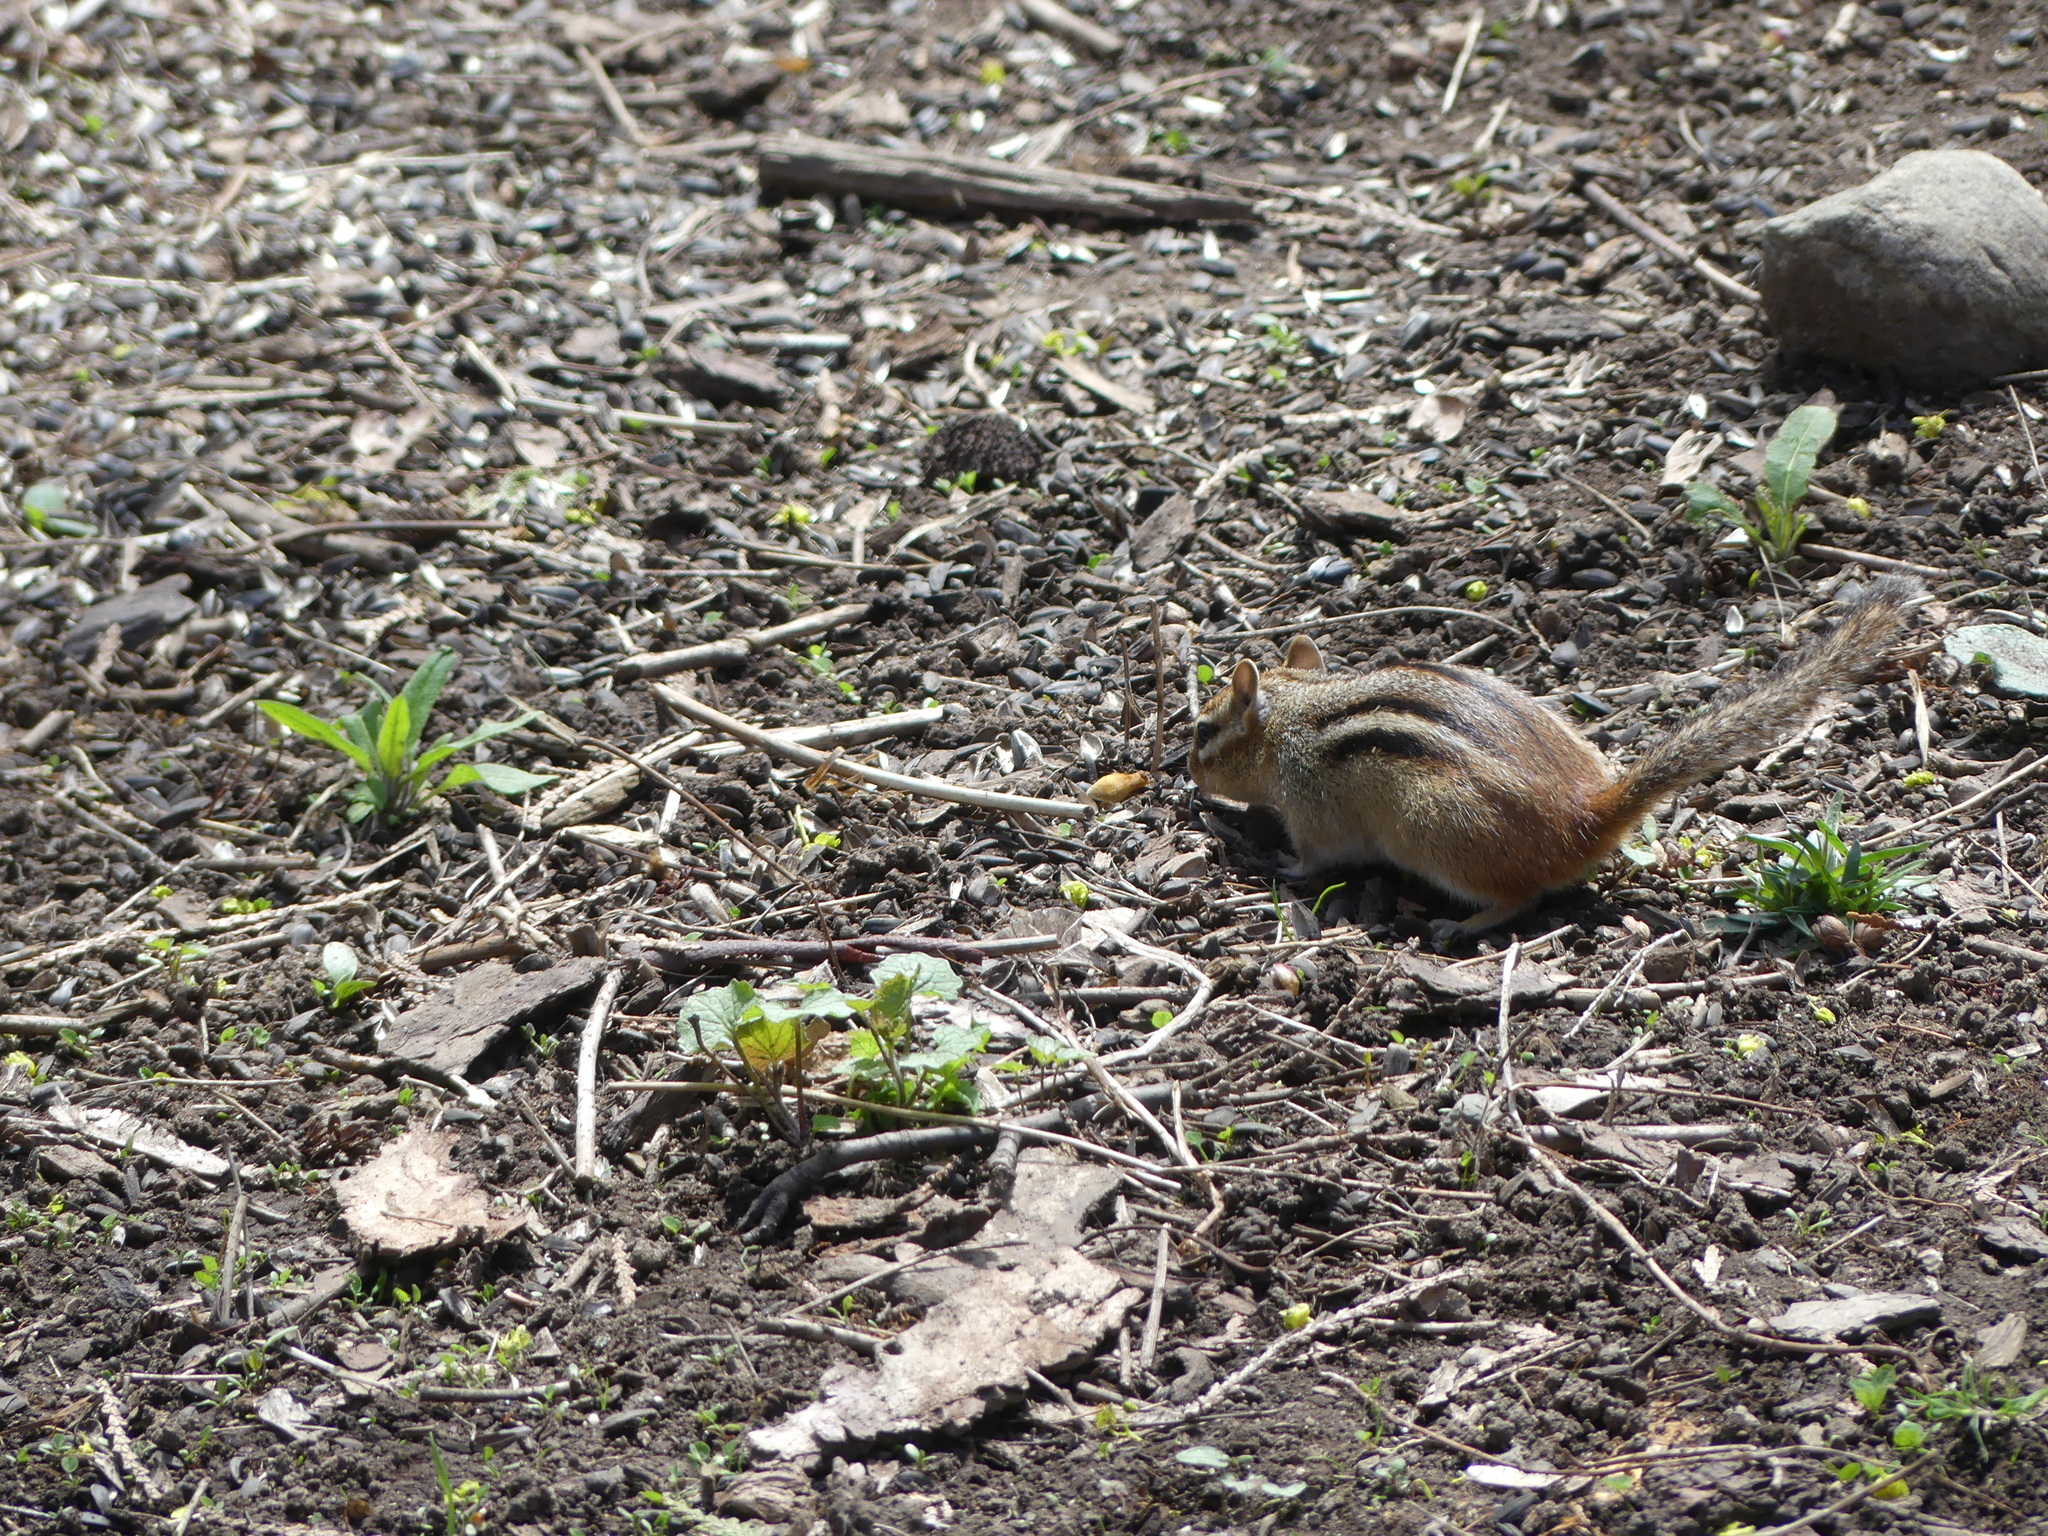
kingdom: Animalia
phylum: Chordata
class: Mammalia
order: Rodentia
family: Sciuridae
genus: Tamias
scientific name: Tamias striatus
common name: Eastern chipmunk
